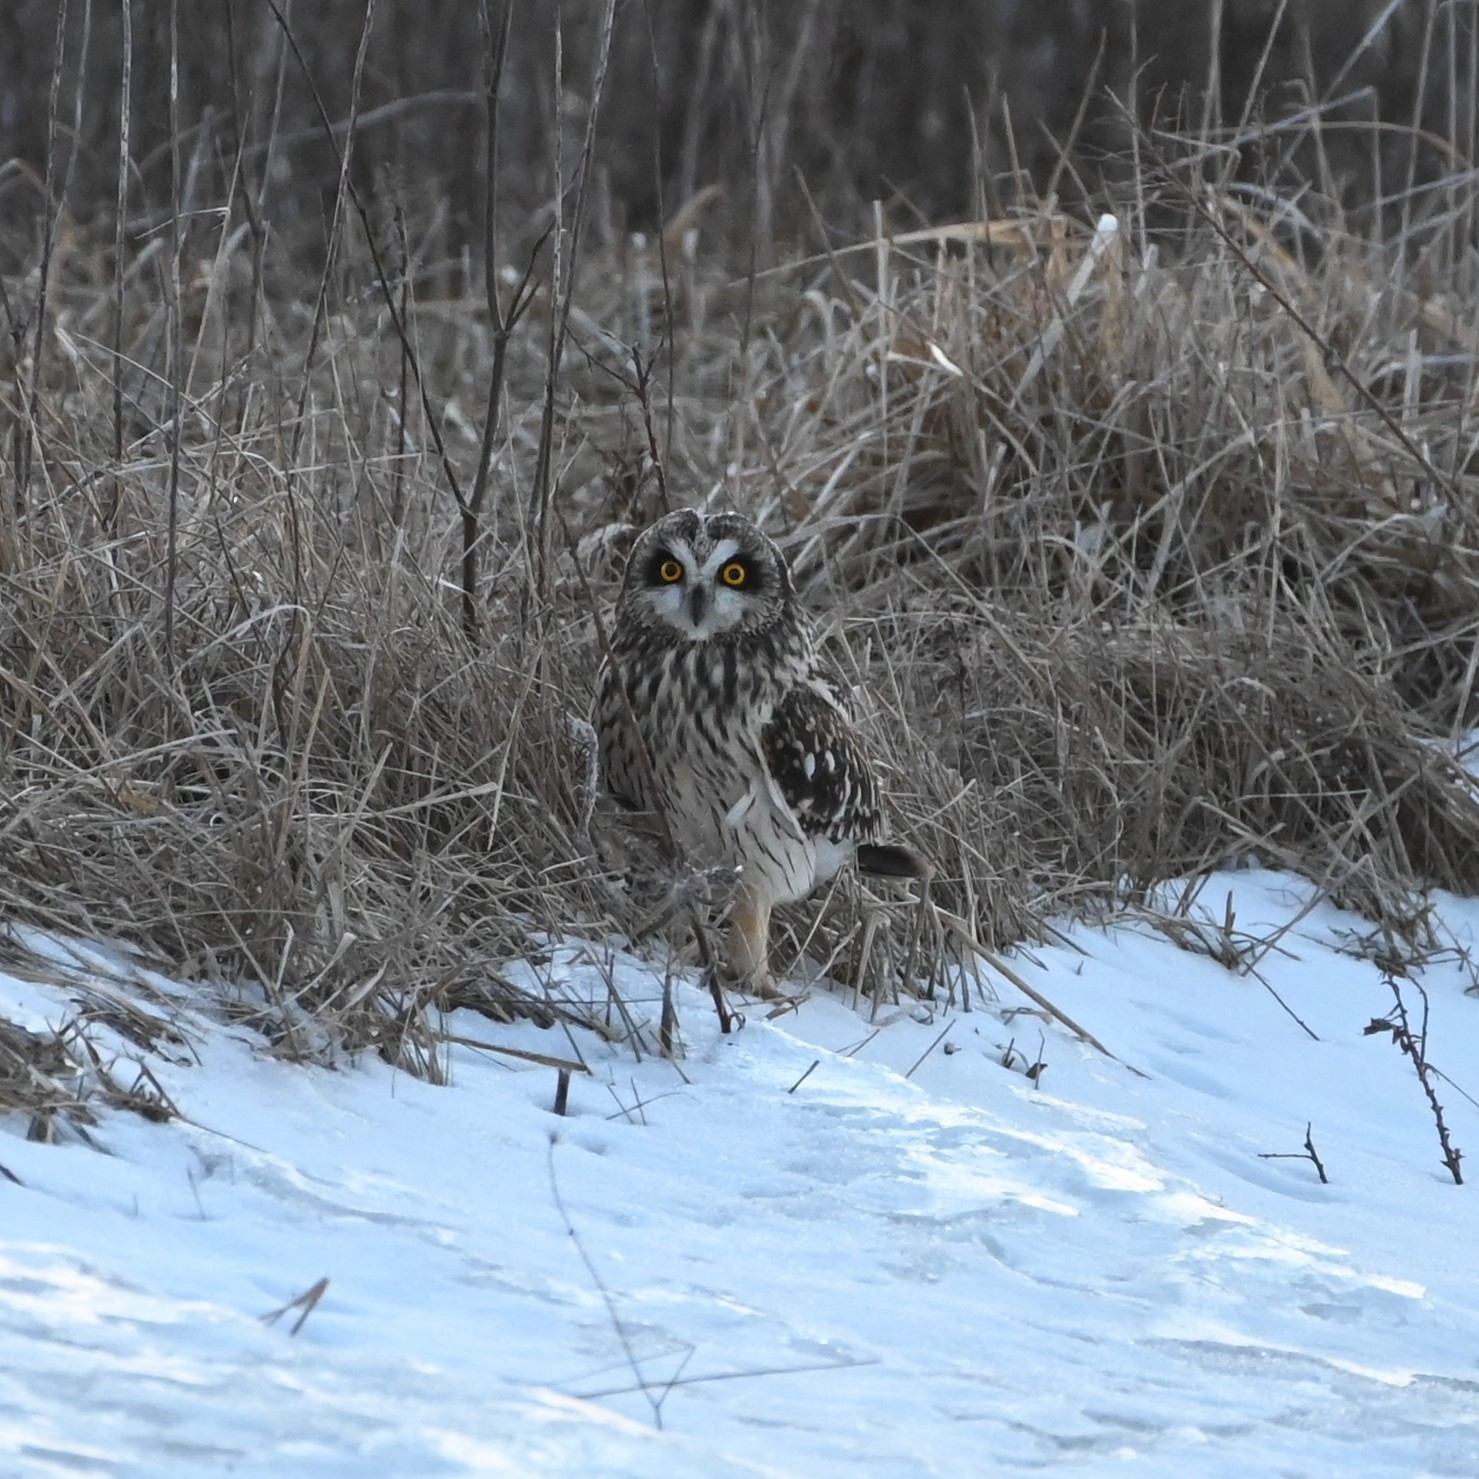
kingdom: Animalia
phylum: Chordata
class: Aves
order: Strigiformes
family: Strigidae
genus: Asio
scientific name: Asio flammeus
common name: Short-eared owl
